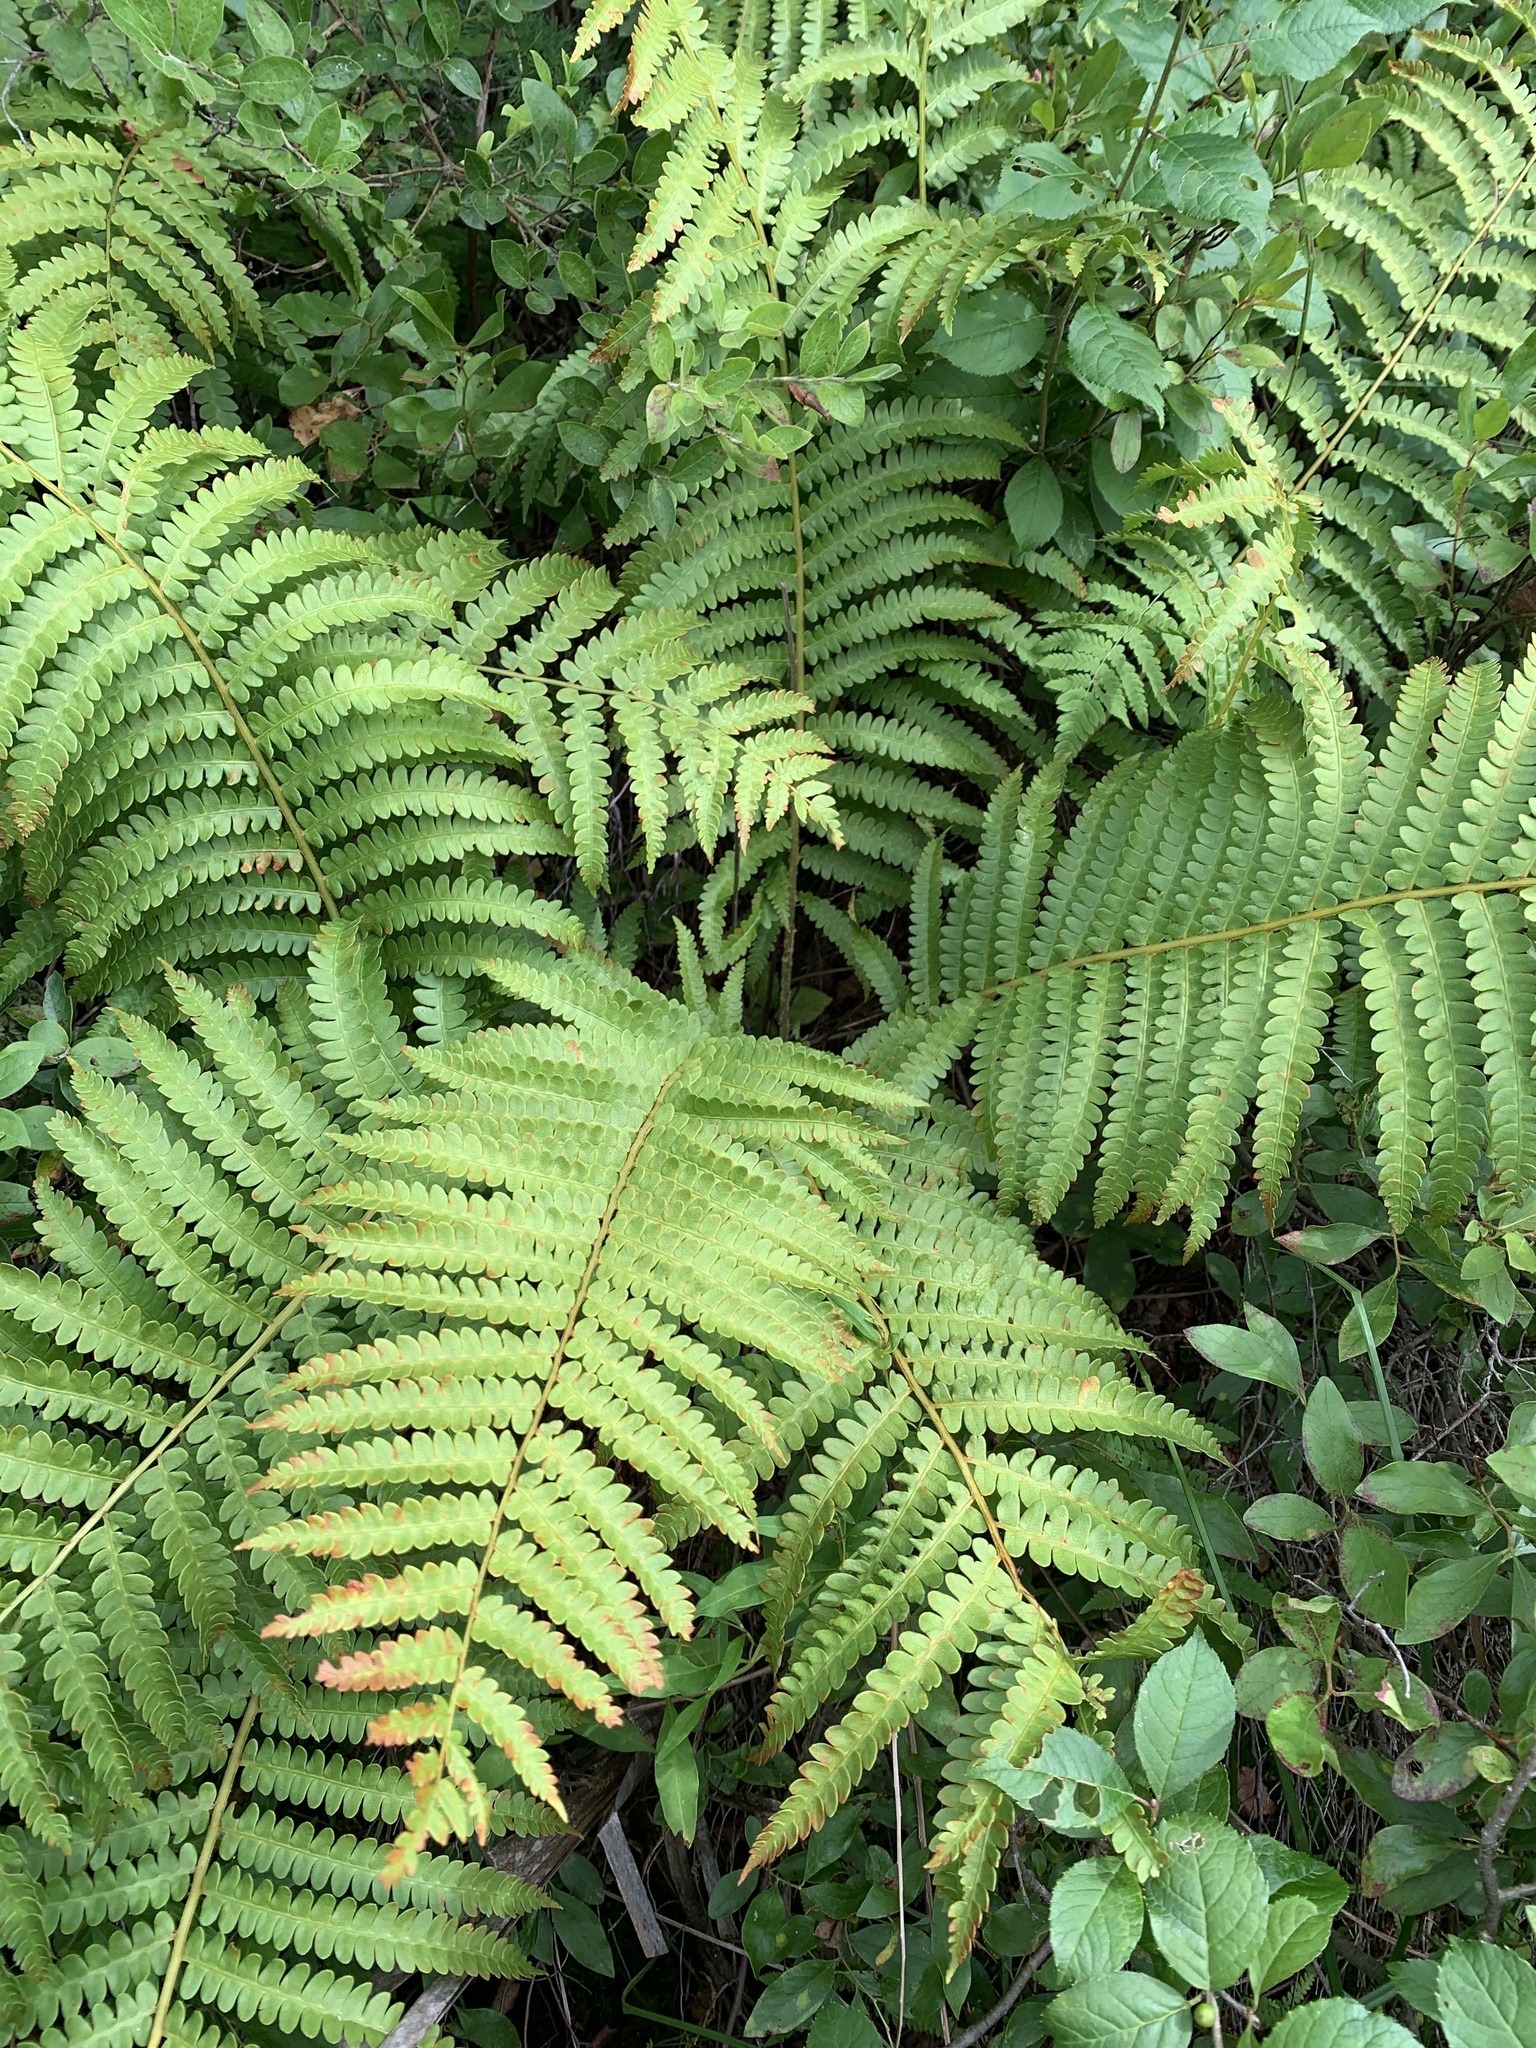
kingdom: Plantae
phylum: Tracheophyta
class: Polypodiopsida
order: Osmundales
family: Osmundaceae
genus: Osmundastrum
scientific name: Osmundastrum cinnamomeum
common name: Cinnamon fern
